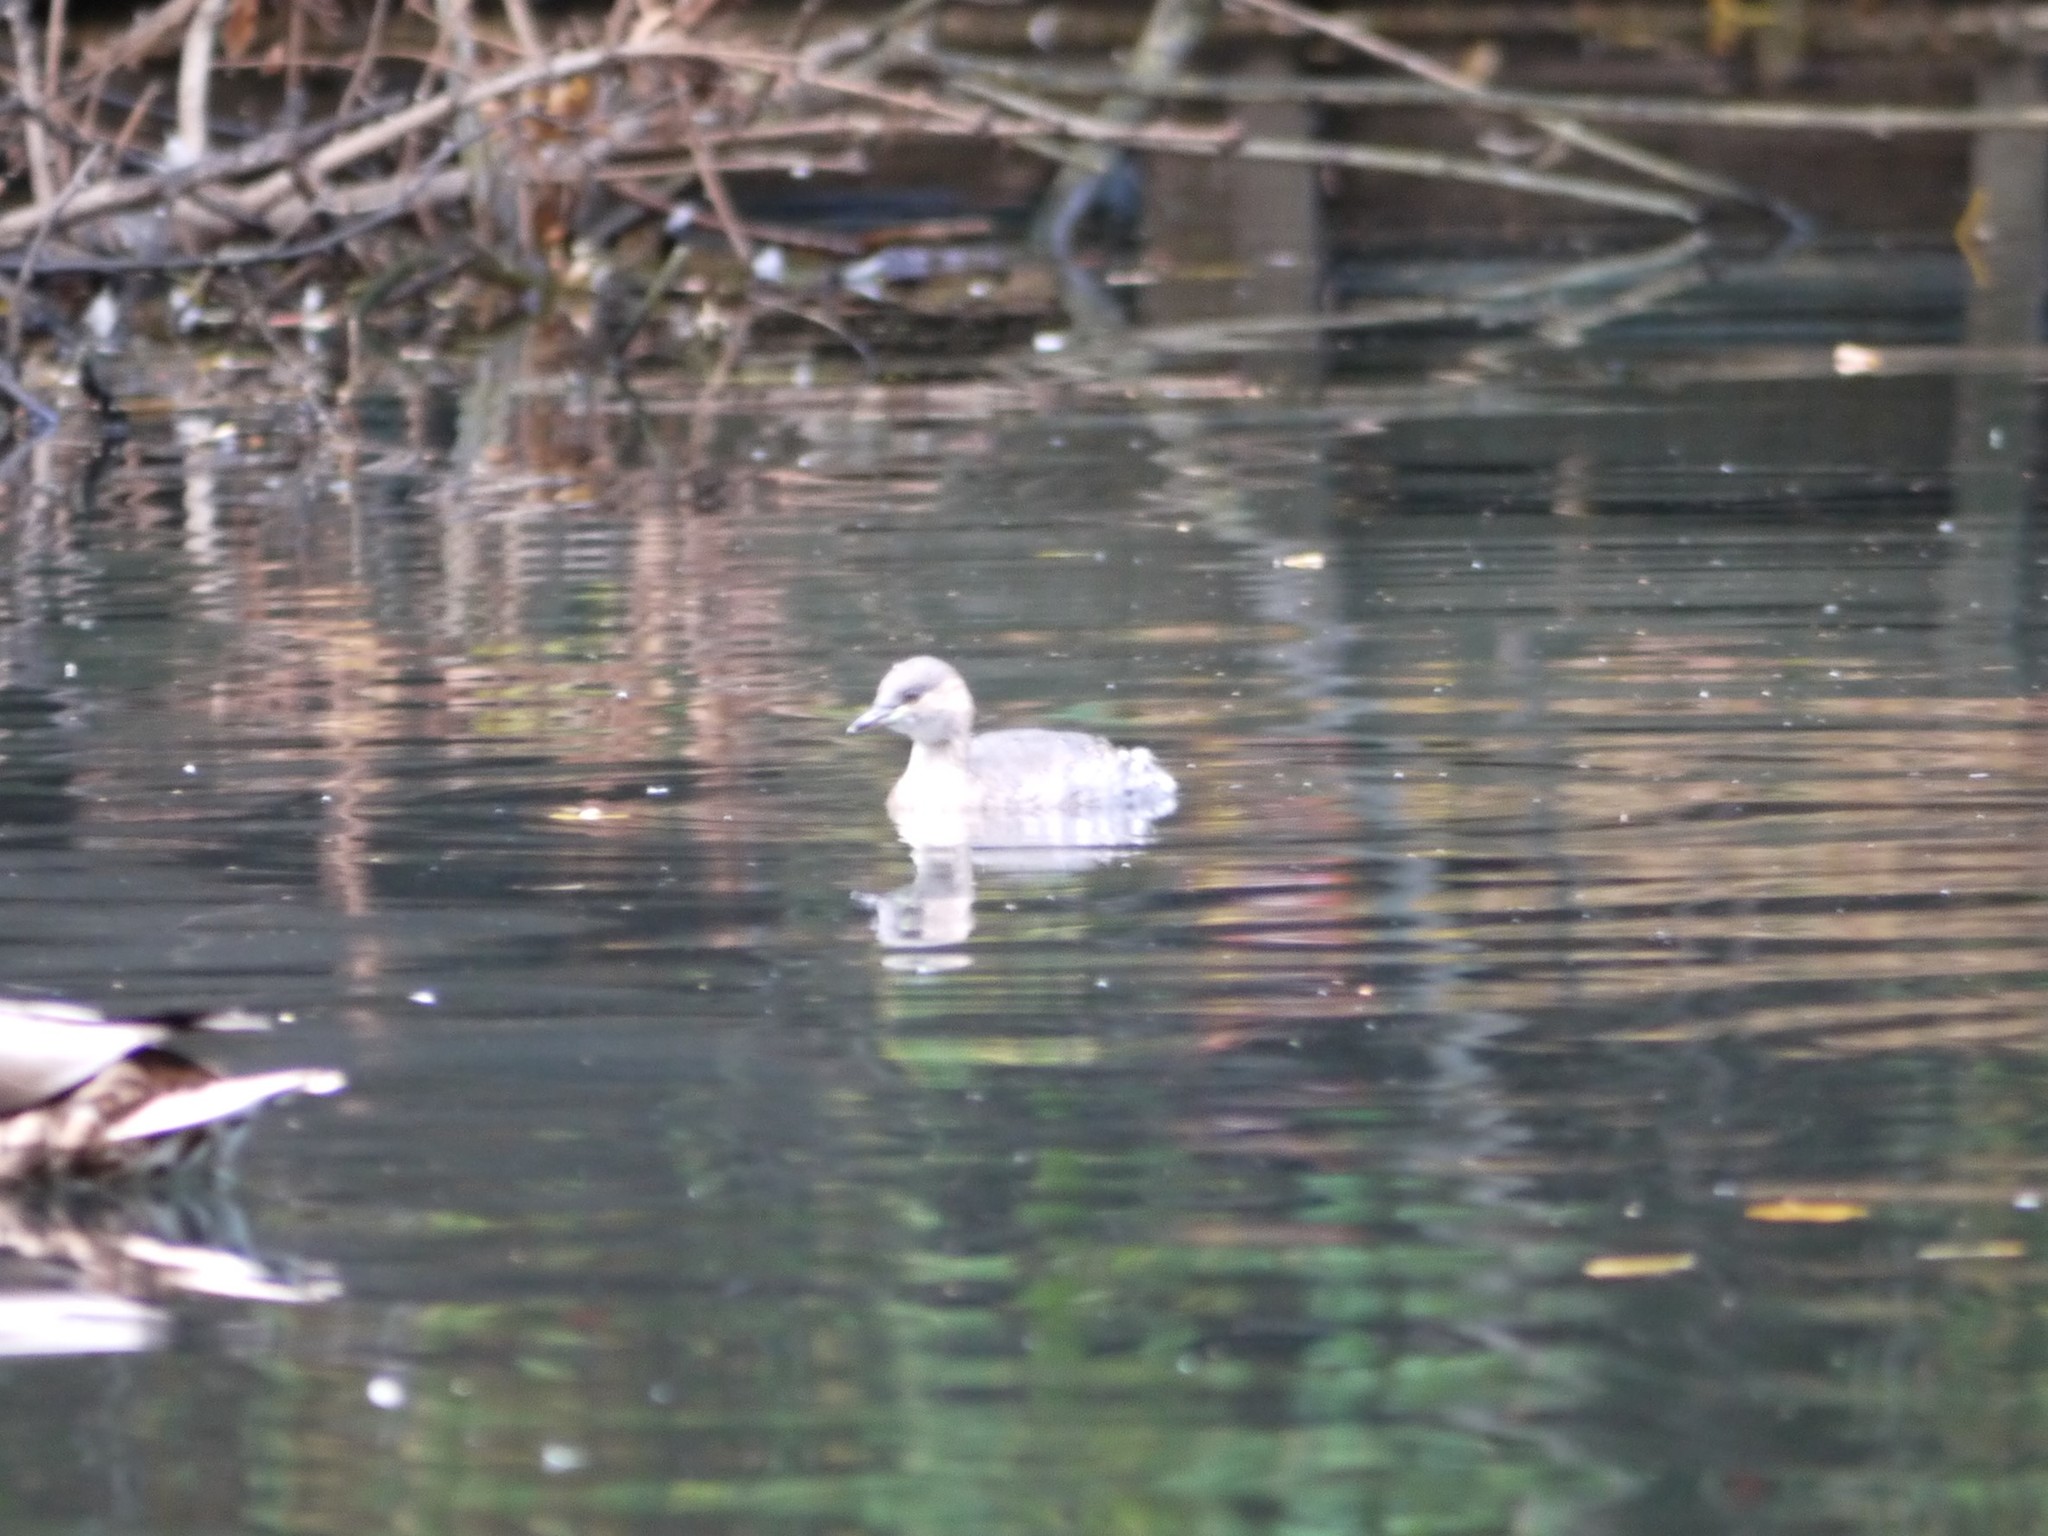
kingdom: Animalia
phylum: Chordata
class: Aves
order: Podicipediformes
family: Podicipedidae
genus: Tachybaptus
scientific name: Tachybaptus ruficollis
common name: Little grebe
